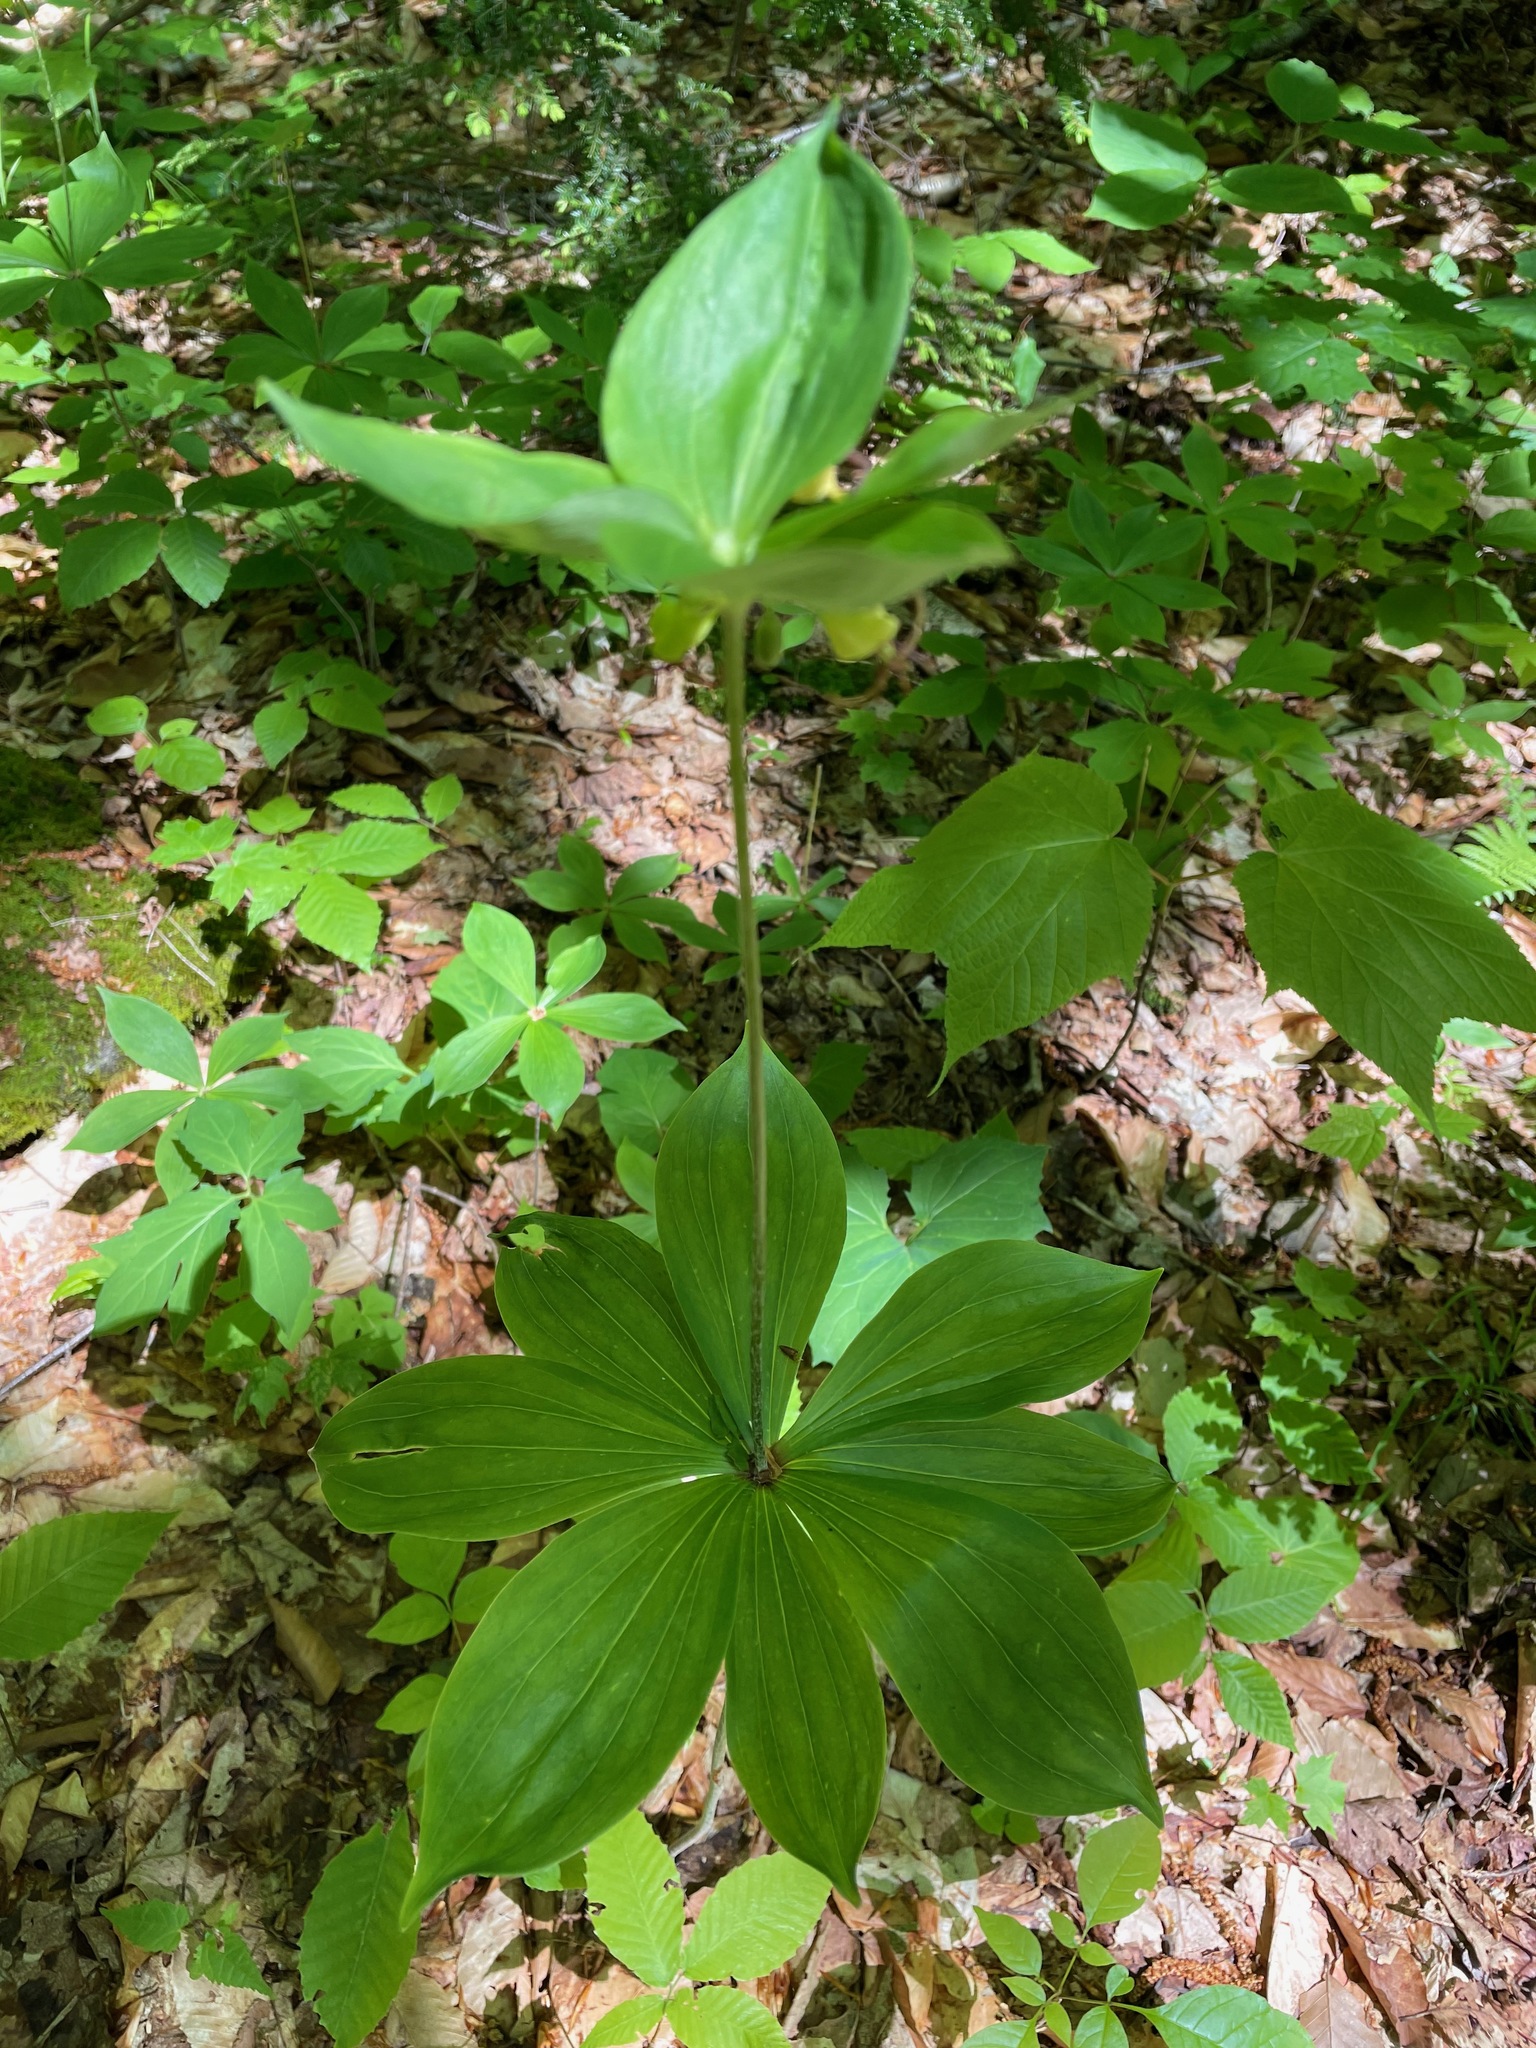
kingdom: Plantae
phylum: Tracheophyta
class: Liliopsida
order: Liliales
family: Liliaceae
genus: Medeola
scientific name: Medeola virginiana
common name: Indian cucumber-root
